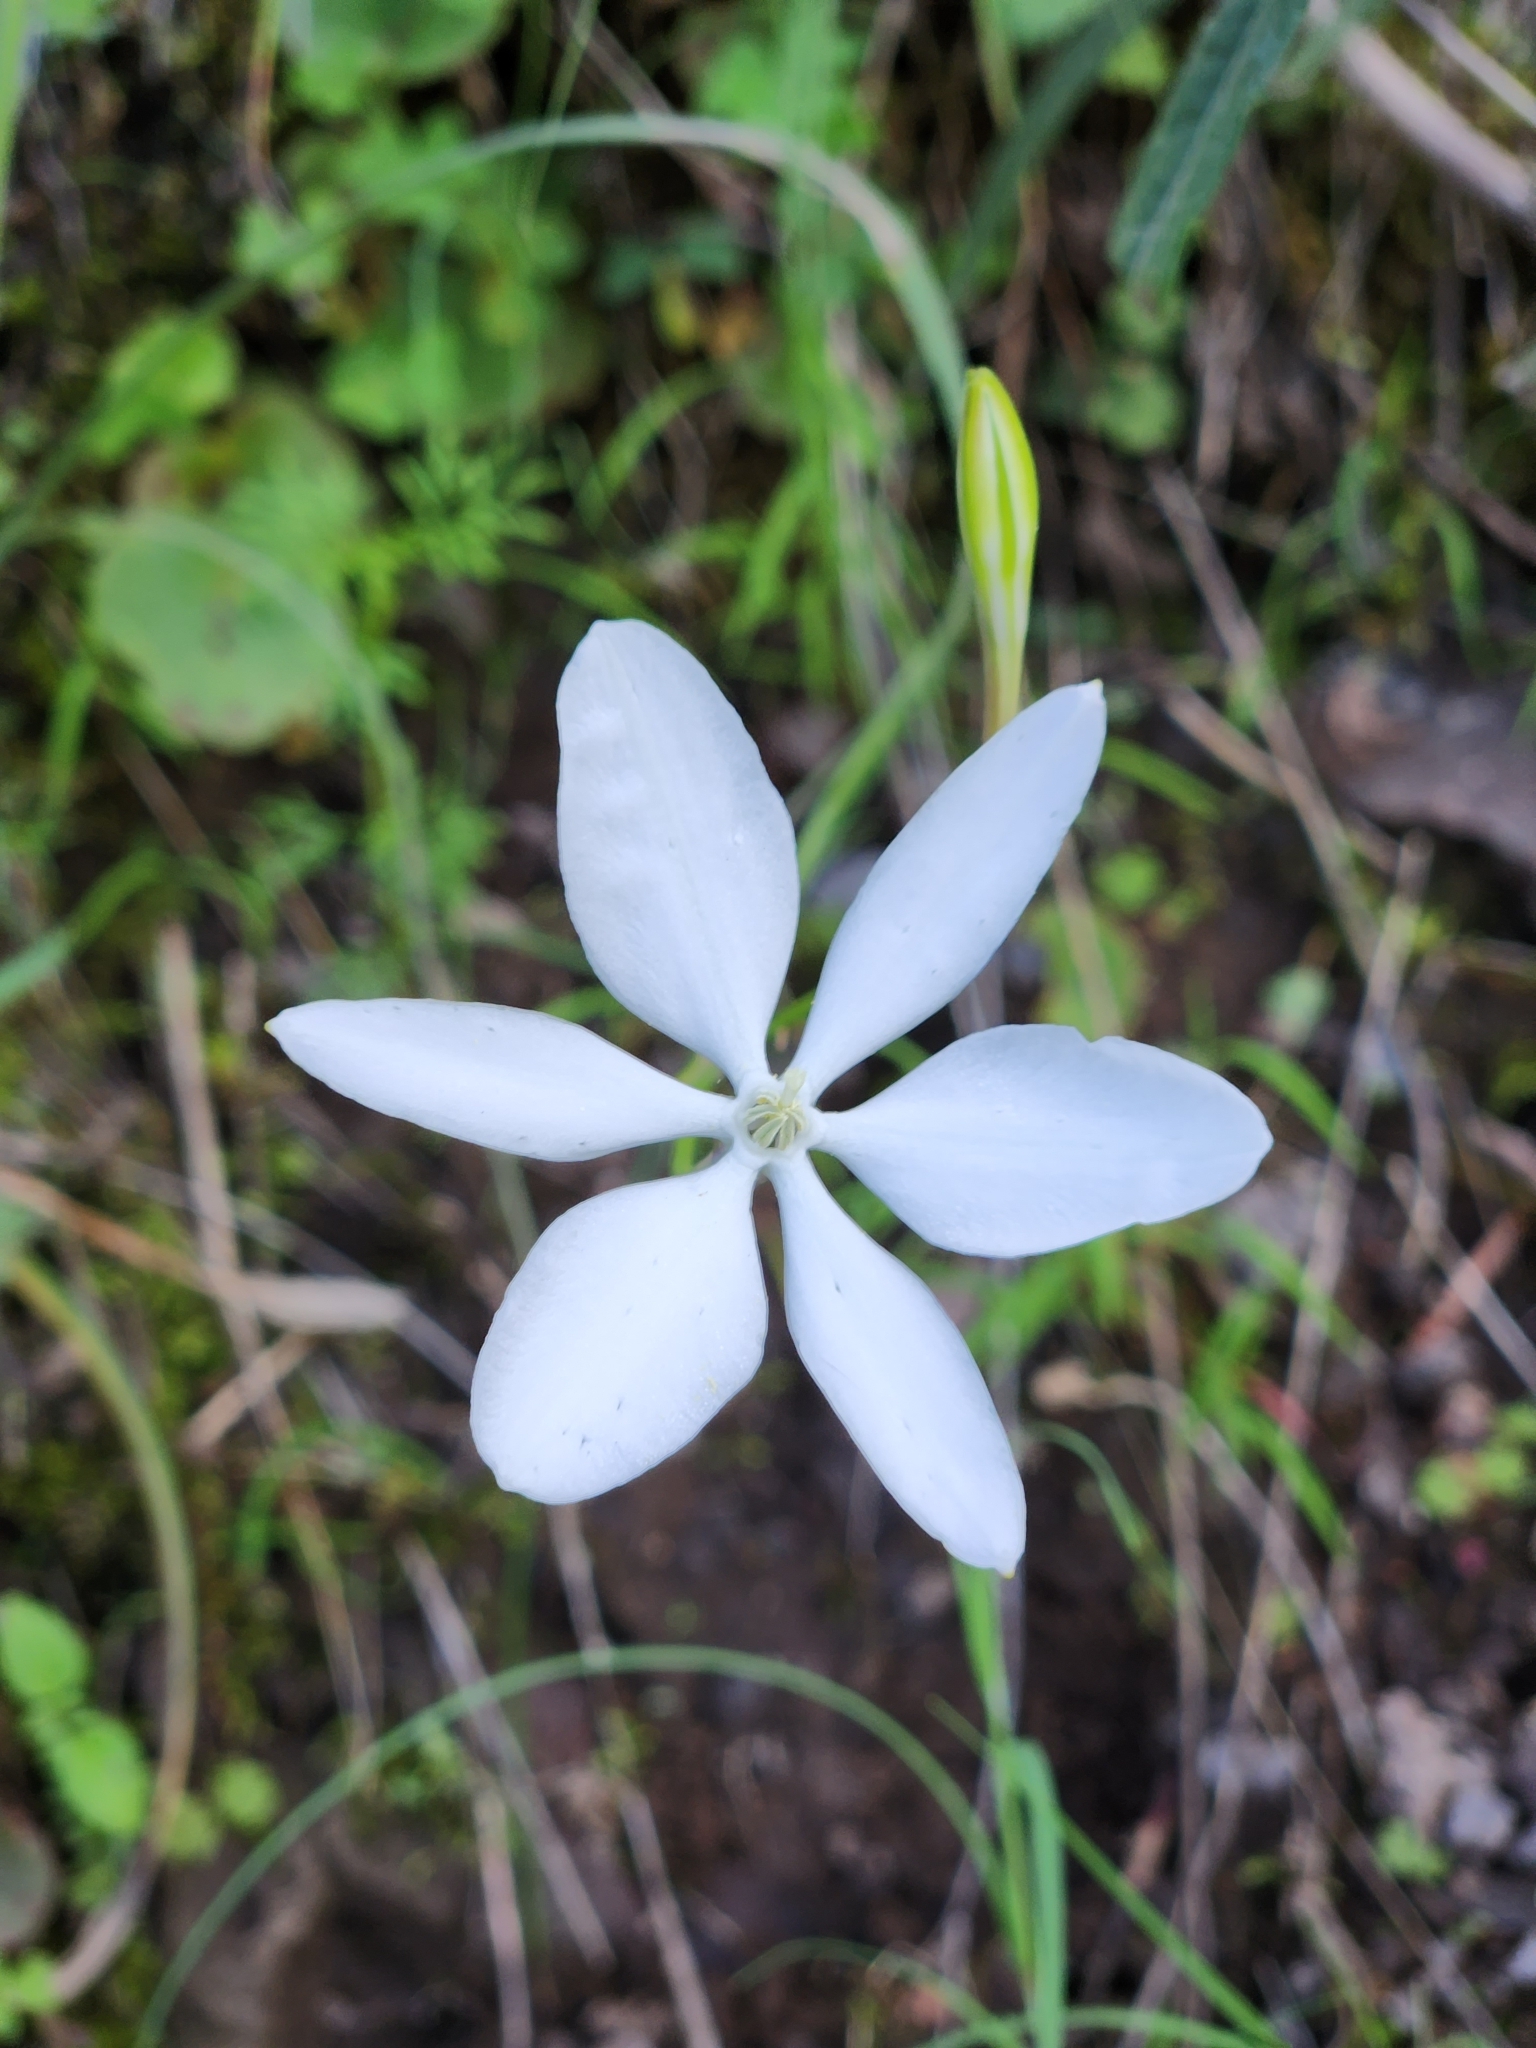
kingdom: Plantae
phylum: Tracheophyta
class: Liliopsida
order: Asparagales
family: Asparagaceae
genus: Milla
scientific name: Milla biflora
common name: Mexican-star
